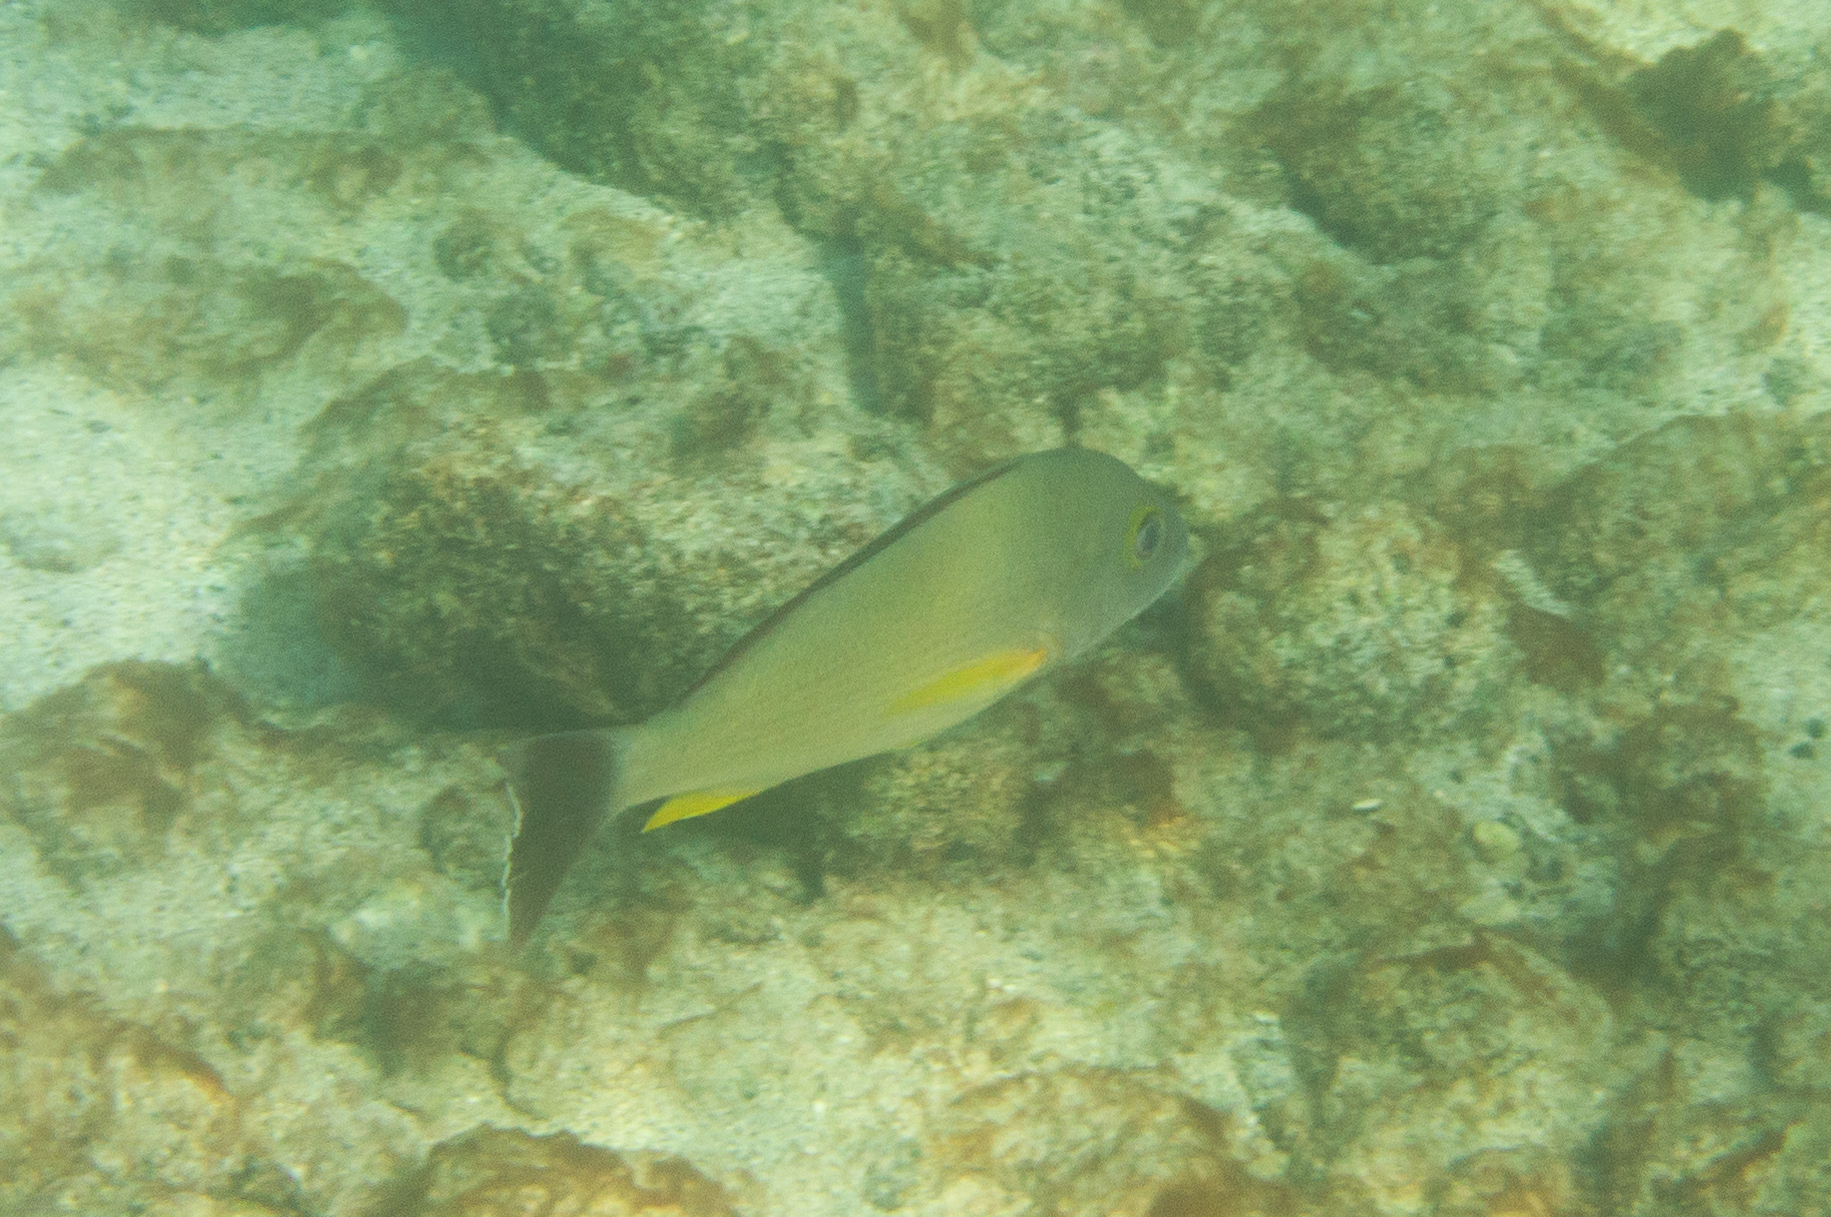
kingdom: Animalia
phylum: Chordata
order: Perciformes
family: Lutjanidae
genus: Lutjanus
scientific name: Lutjanus fulvus
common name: Blacktail snapper
